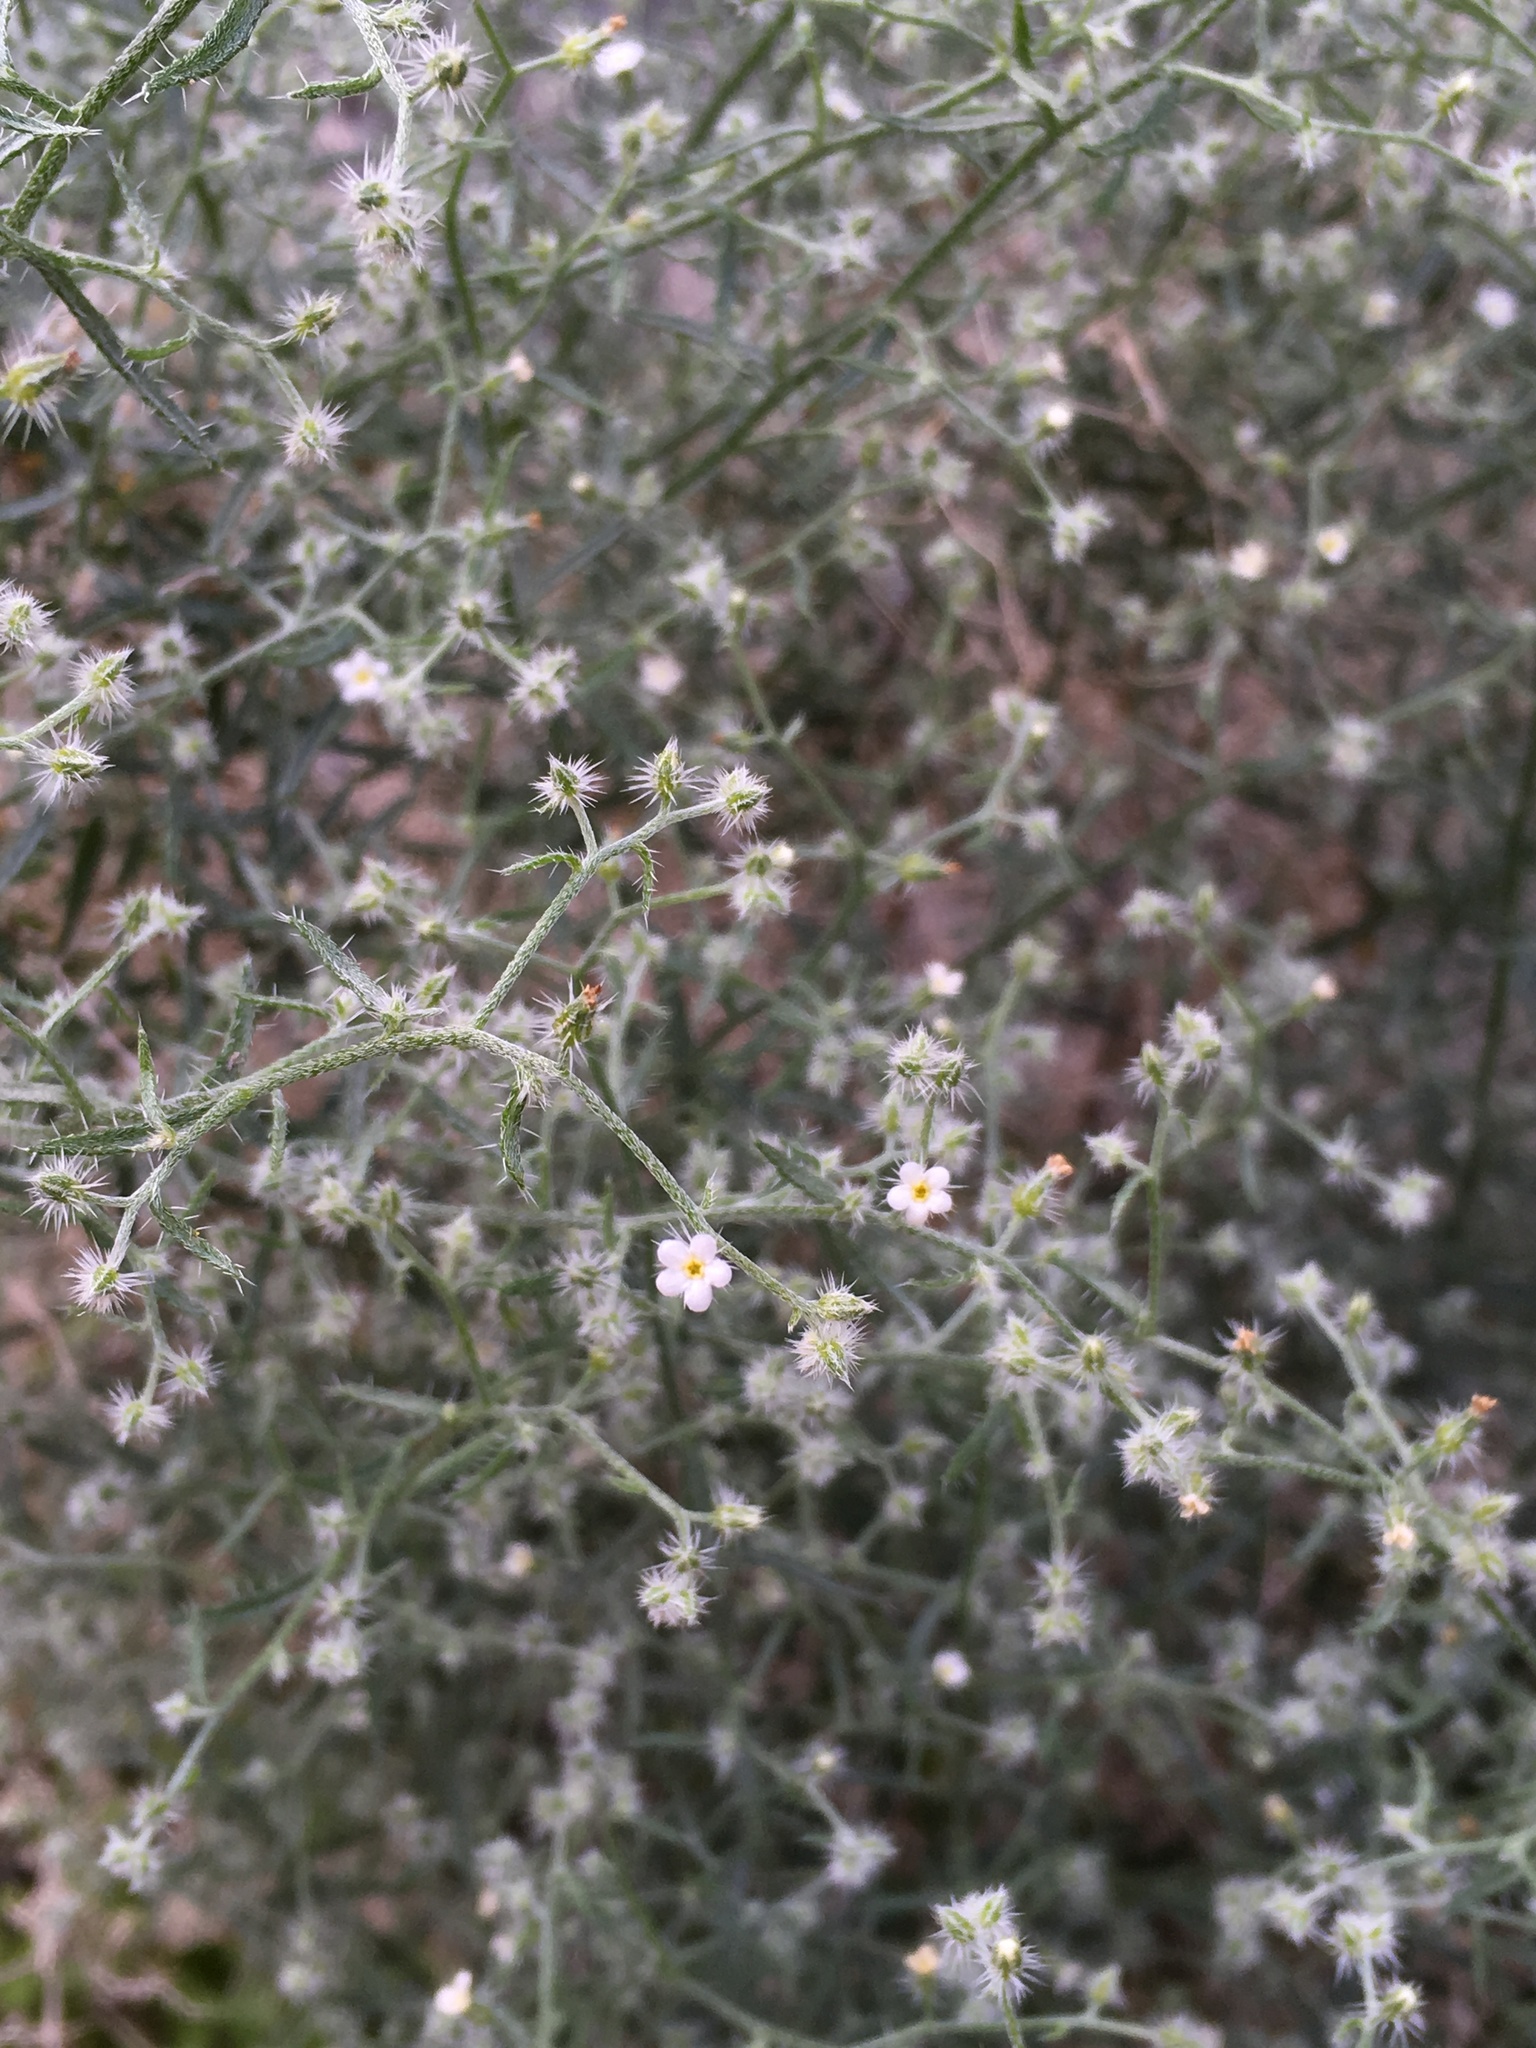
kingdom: Plantae
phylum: Tracheophyta
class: Magnoliopsida
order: Boraginales
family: Boraginaceae
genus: Johnstonella
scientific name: Johnstonella racemosa
